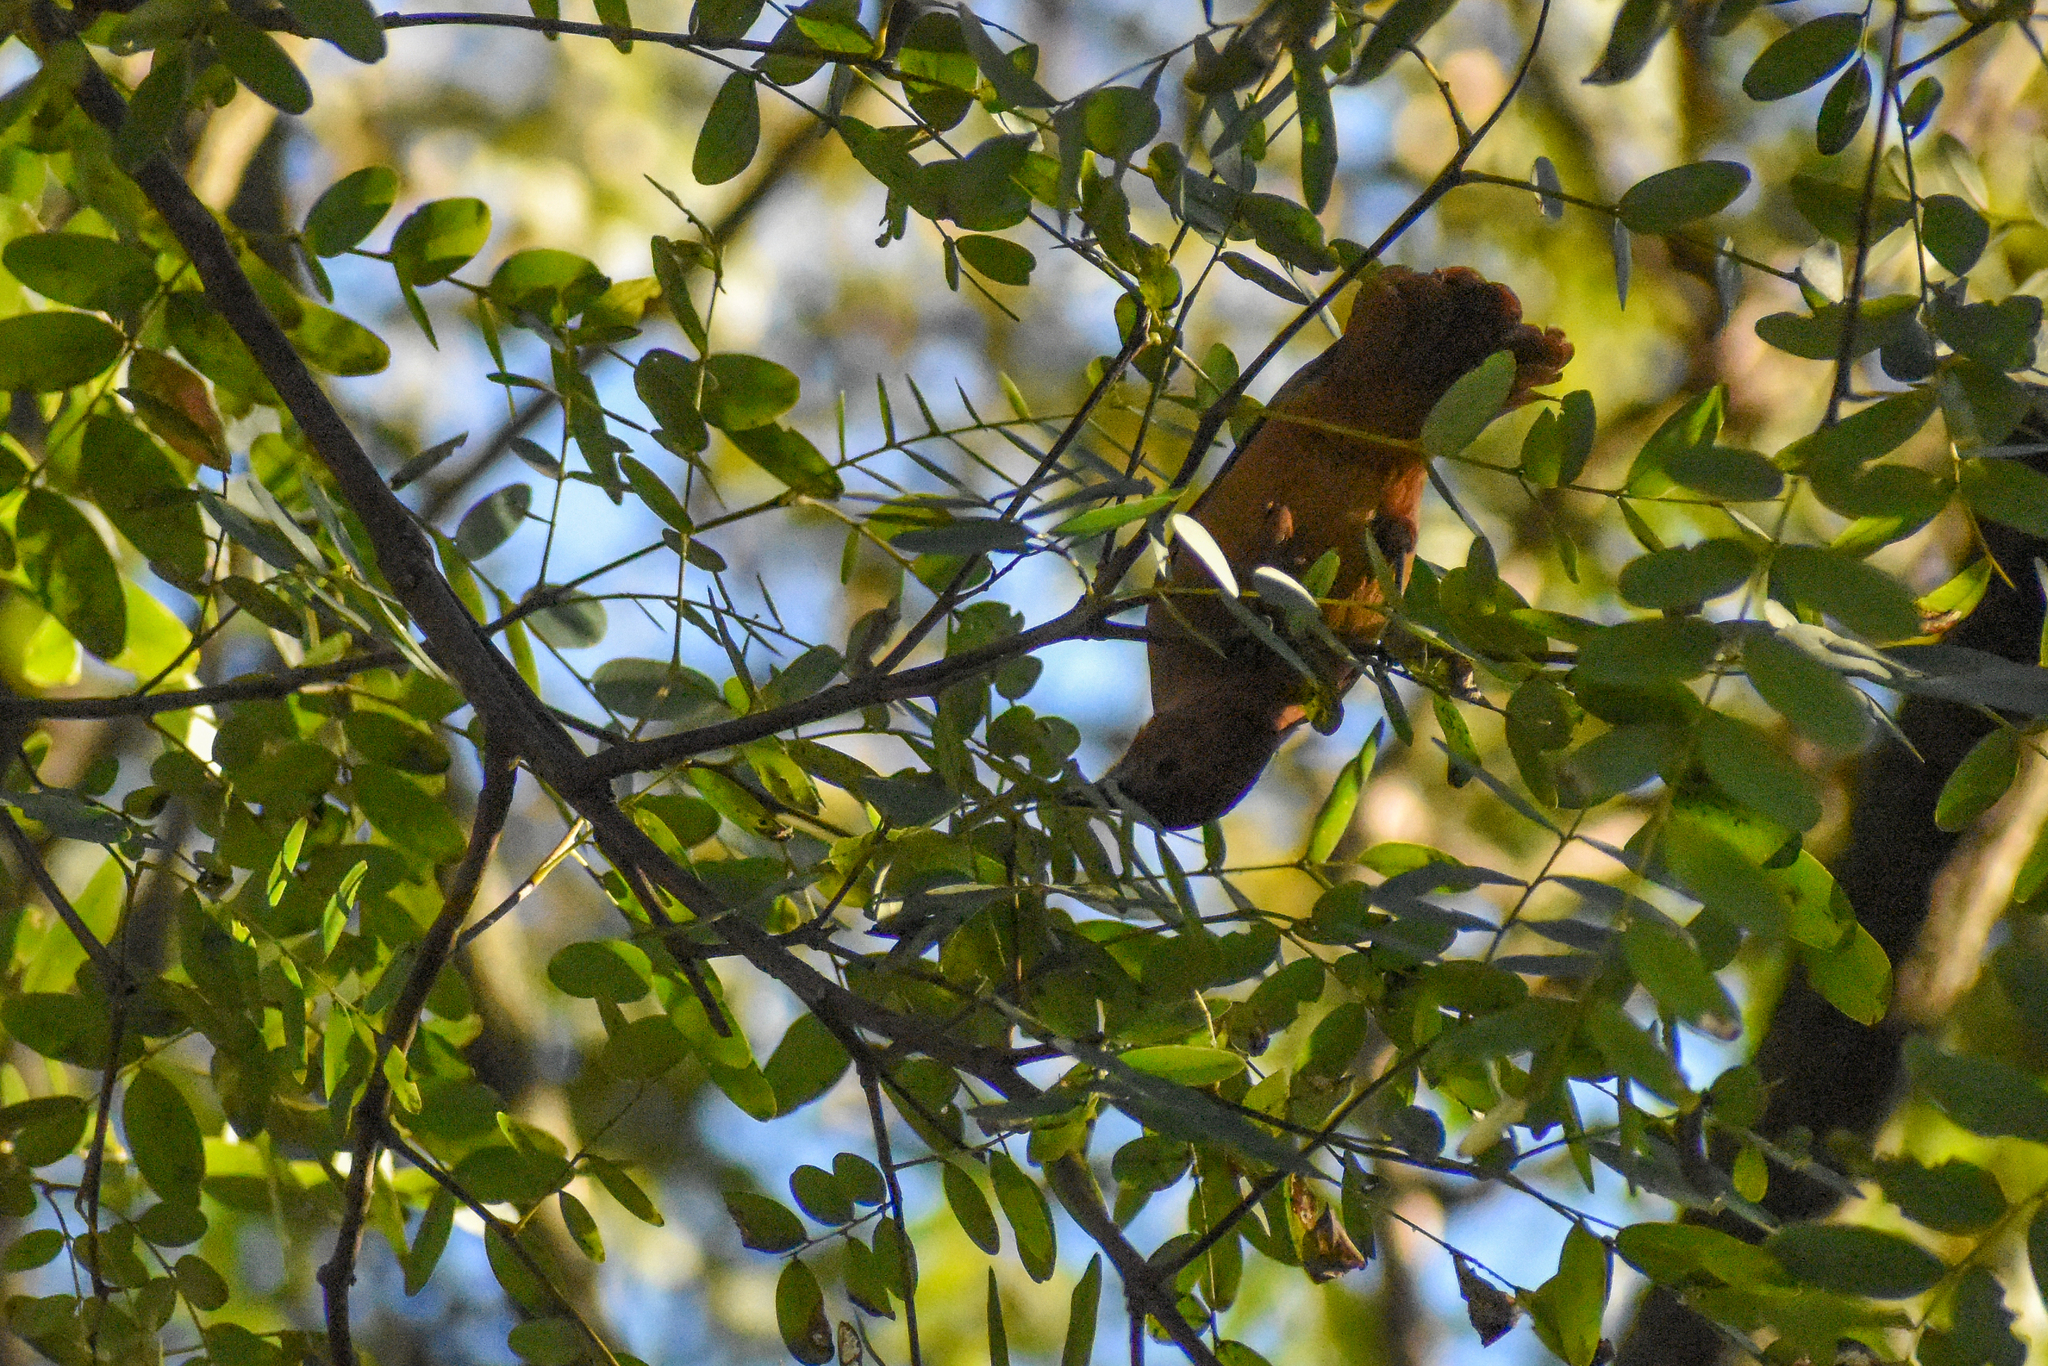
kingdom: Animalia
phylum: Chordata
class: Aves
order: Passeriformes
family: Thraupidae
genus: Tachyphonus
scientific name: Tachyphonus rufus
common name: White-lined tanager
